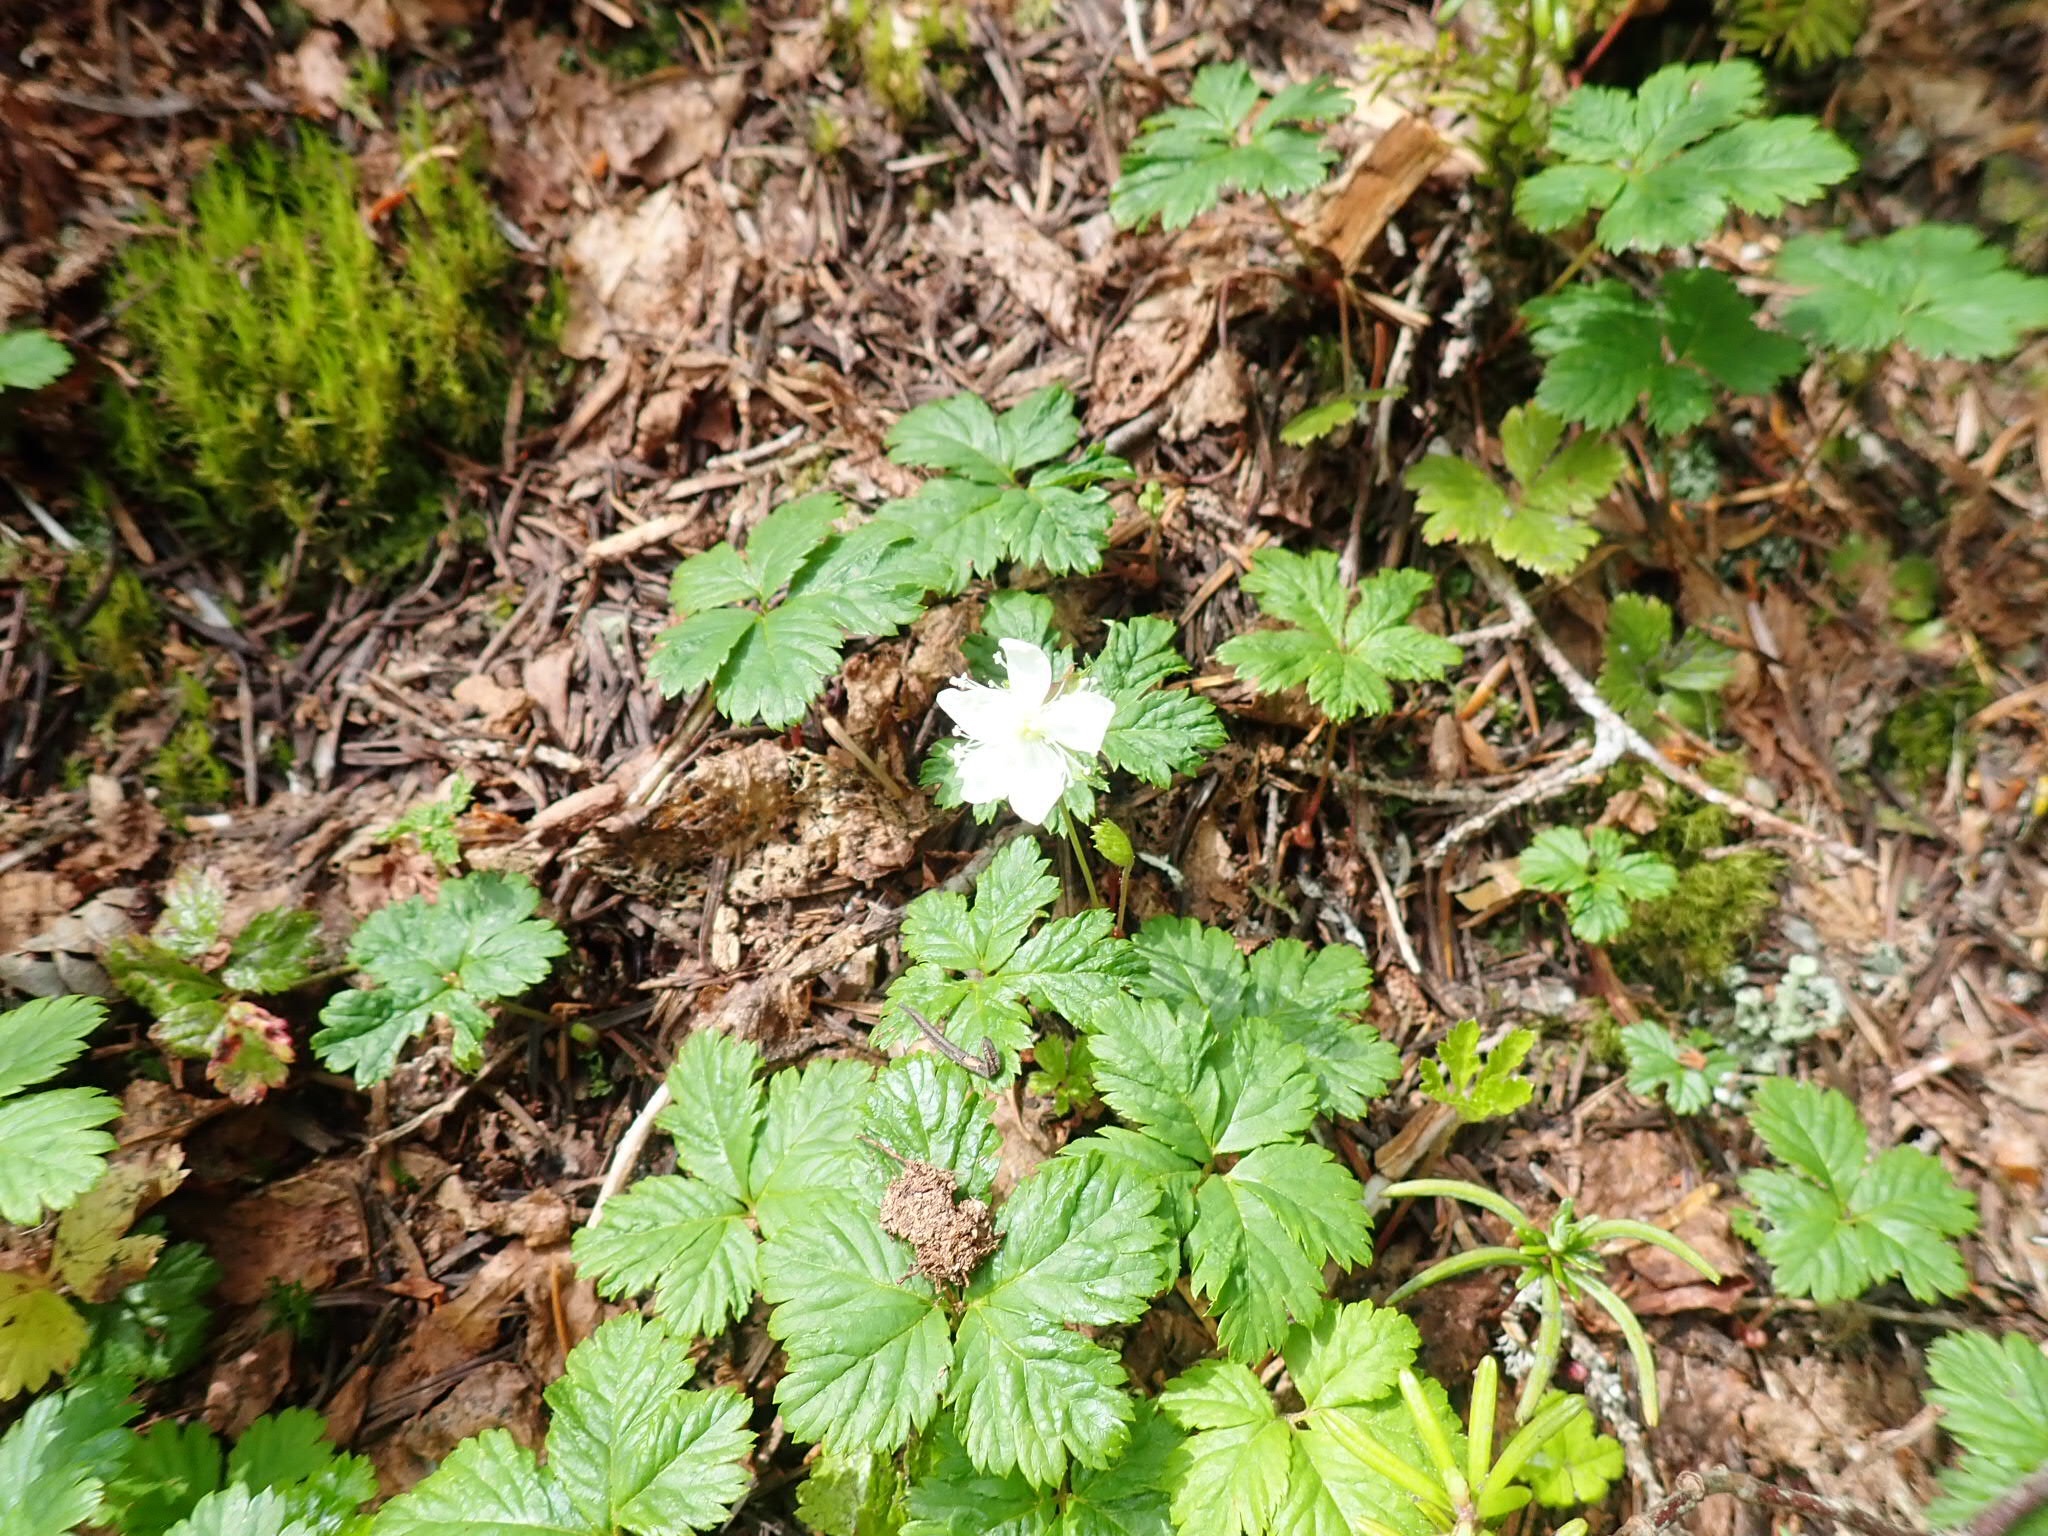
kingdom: Plantae
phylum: Tracheophyta
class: Magnoliopsida
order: Rosales
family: Rosaceae
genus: Rubus
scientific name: Rubus pedatus
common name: Creeping raspberry
